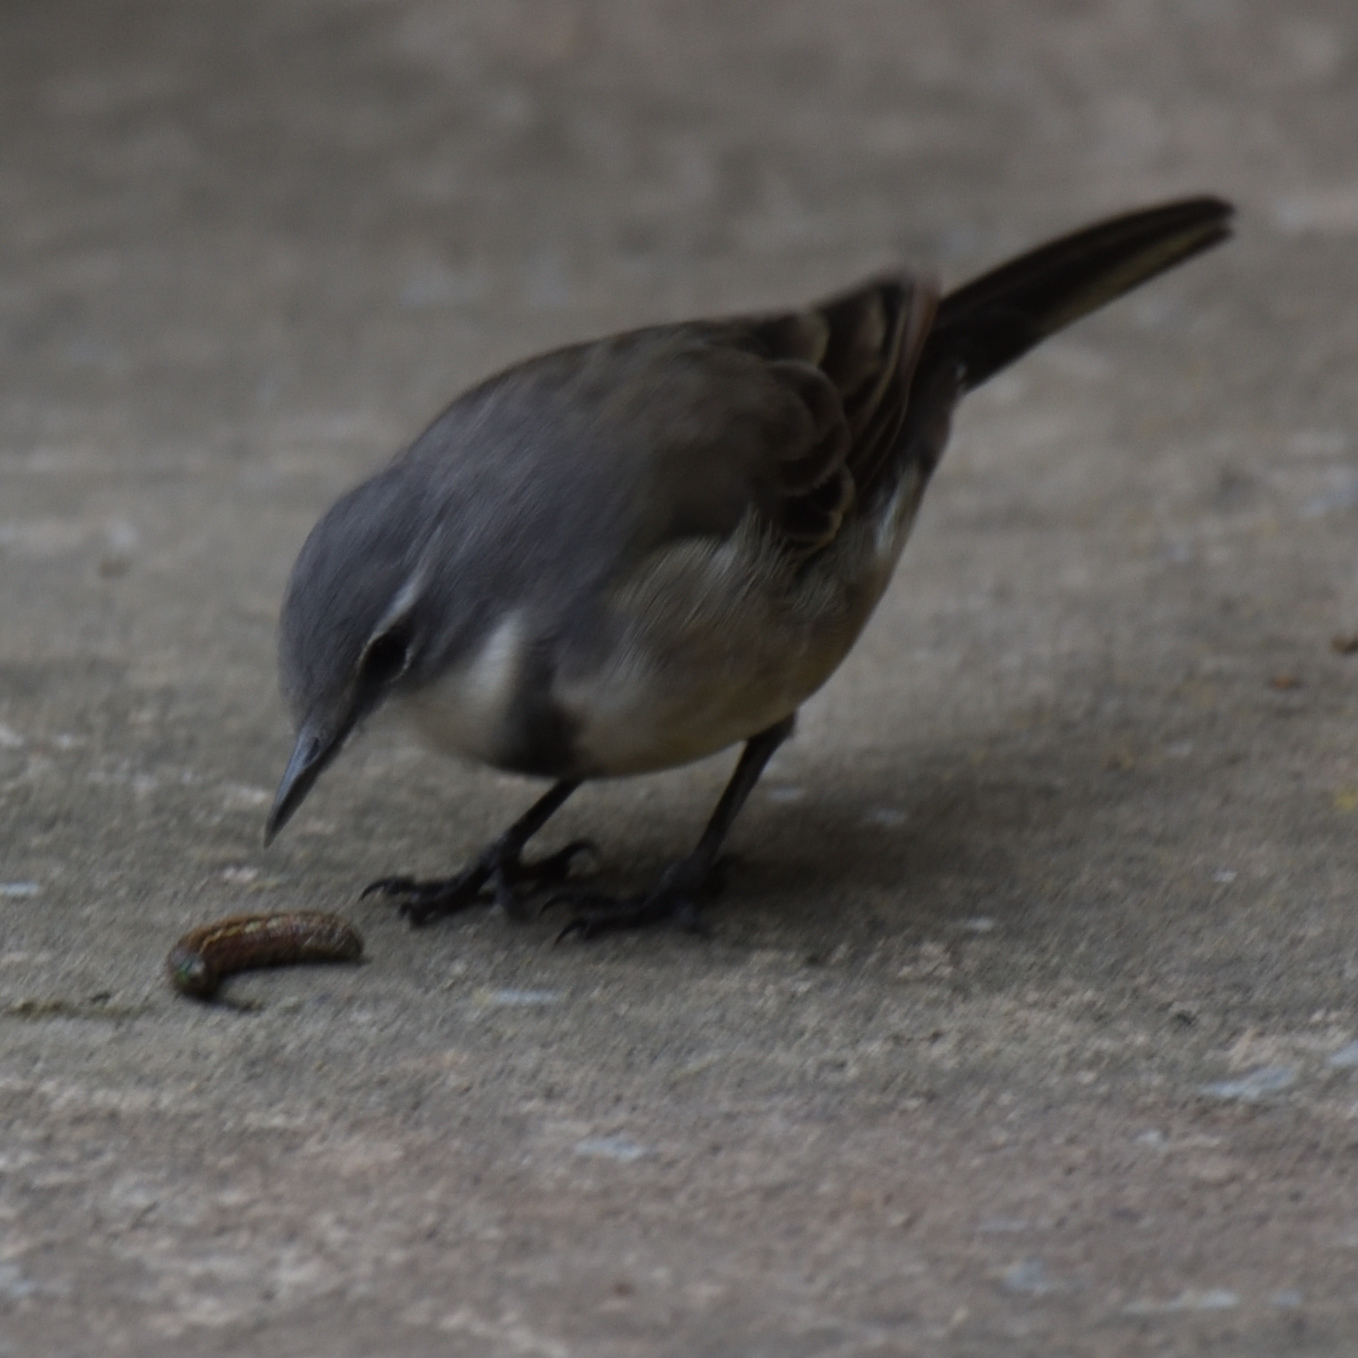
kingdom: Animalia
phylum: Chordata
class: Aves
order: Passeriformes
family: Motacillidae
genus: Motacilla
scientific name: Motacilla capensis
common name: Cape wagtail
